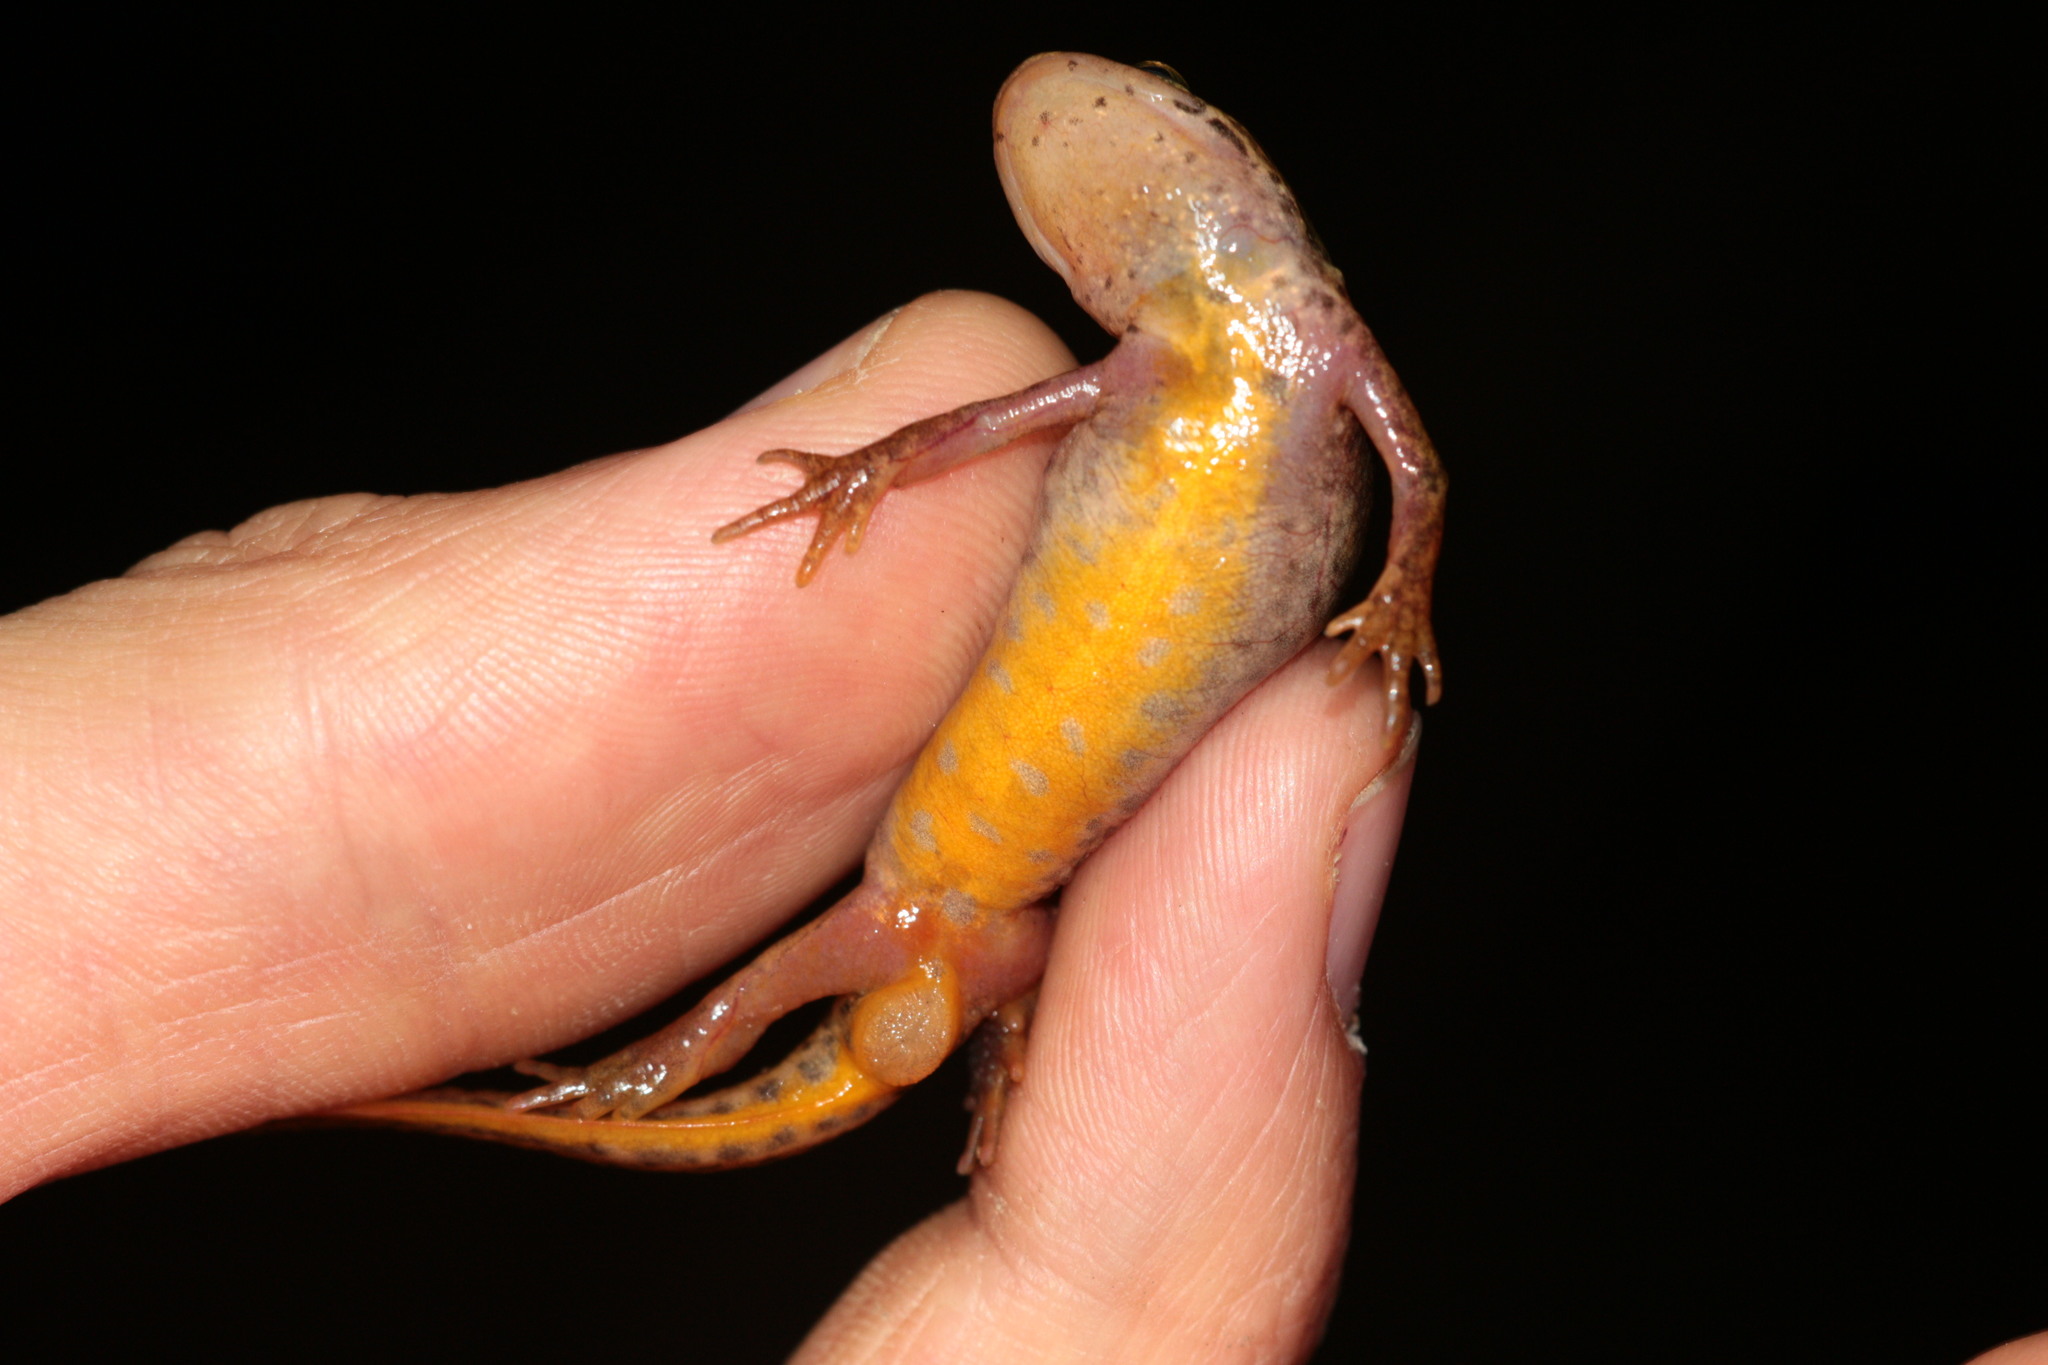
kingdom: Animalia
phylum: Chordata
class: Amphibia
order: Caudata
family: Salamandridae
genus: Lissotriton
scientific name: Lissotriton helveticus
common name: Palmate newt
